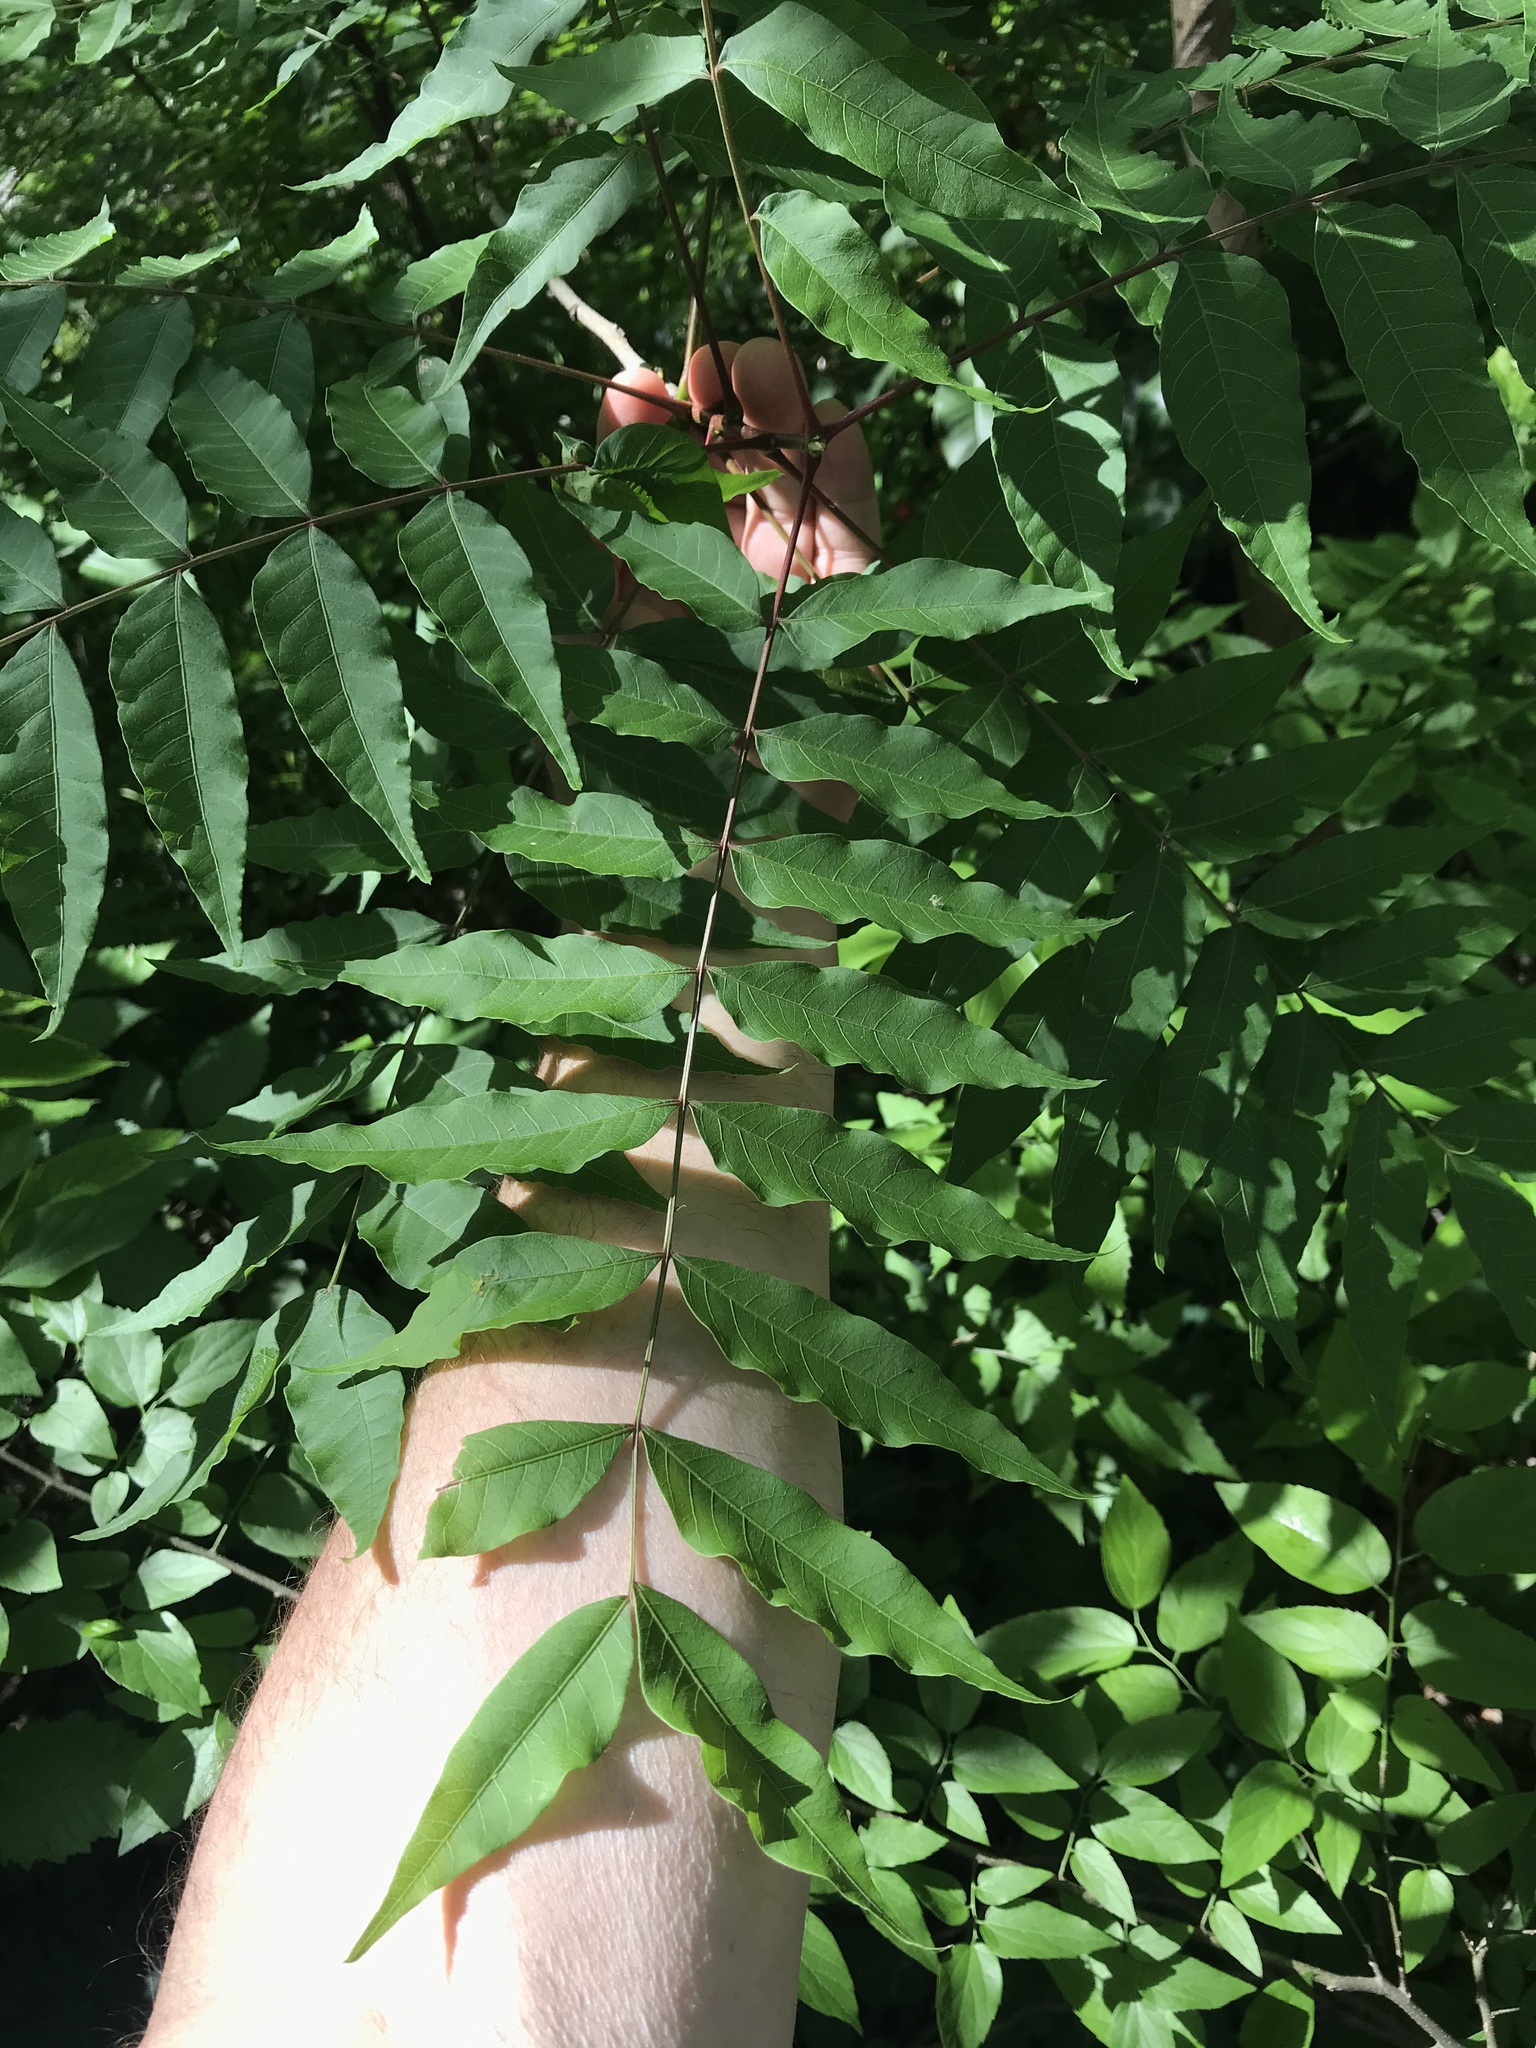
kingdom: Plantae
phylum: Tracheophyta
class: Magnoliopsida
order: Sapindales
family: Anacardiaceae
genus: Pistacia
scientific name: Pistacia chinensis
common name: Chinese pistache
